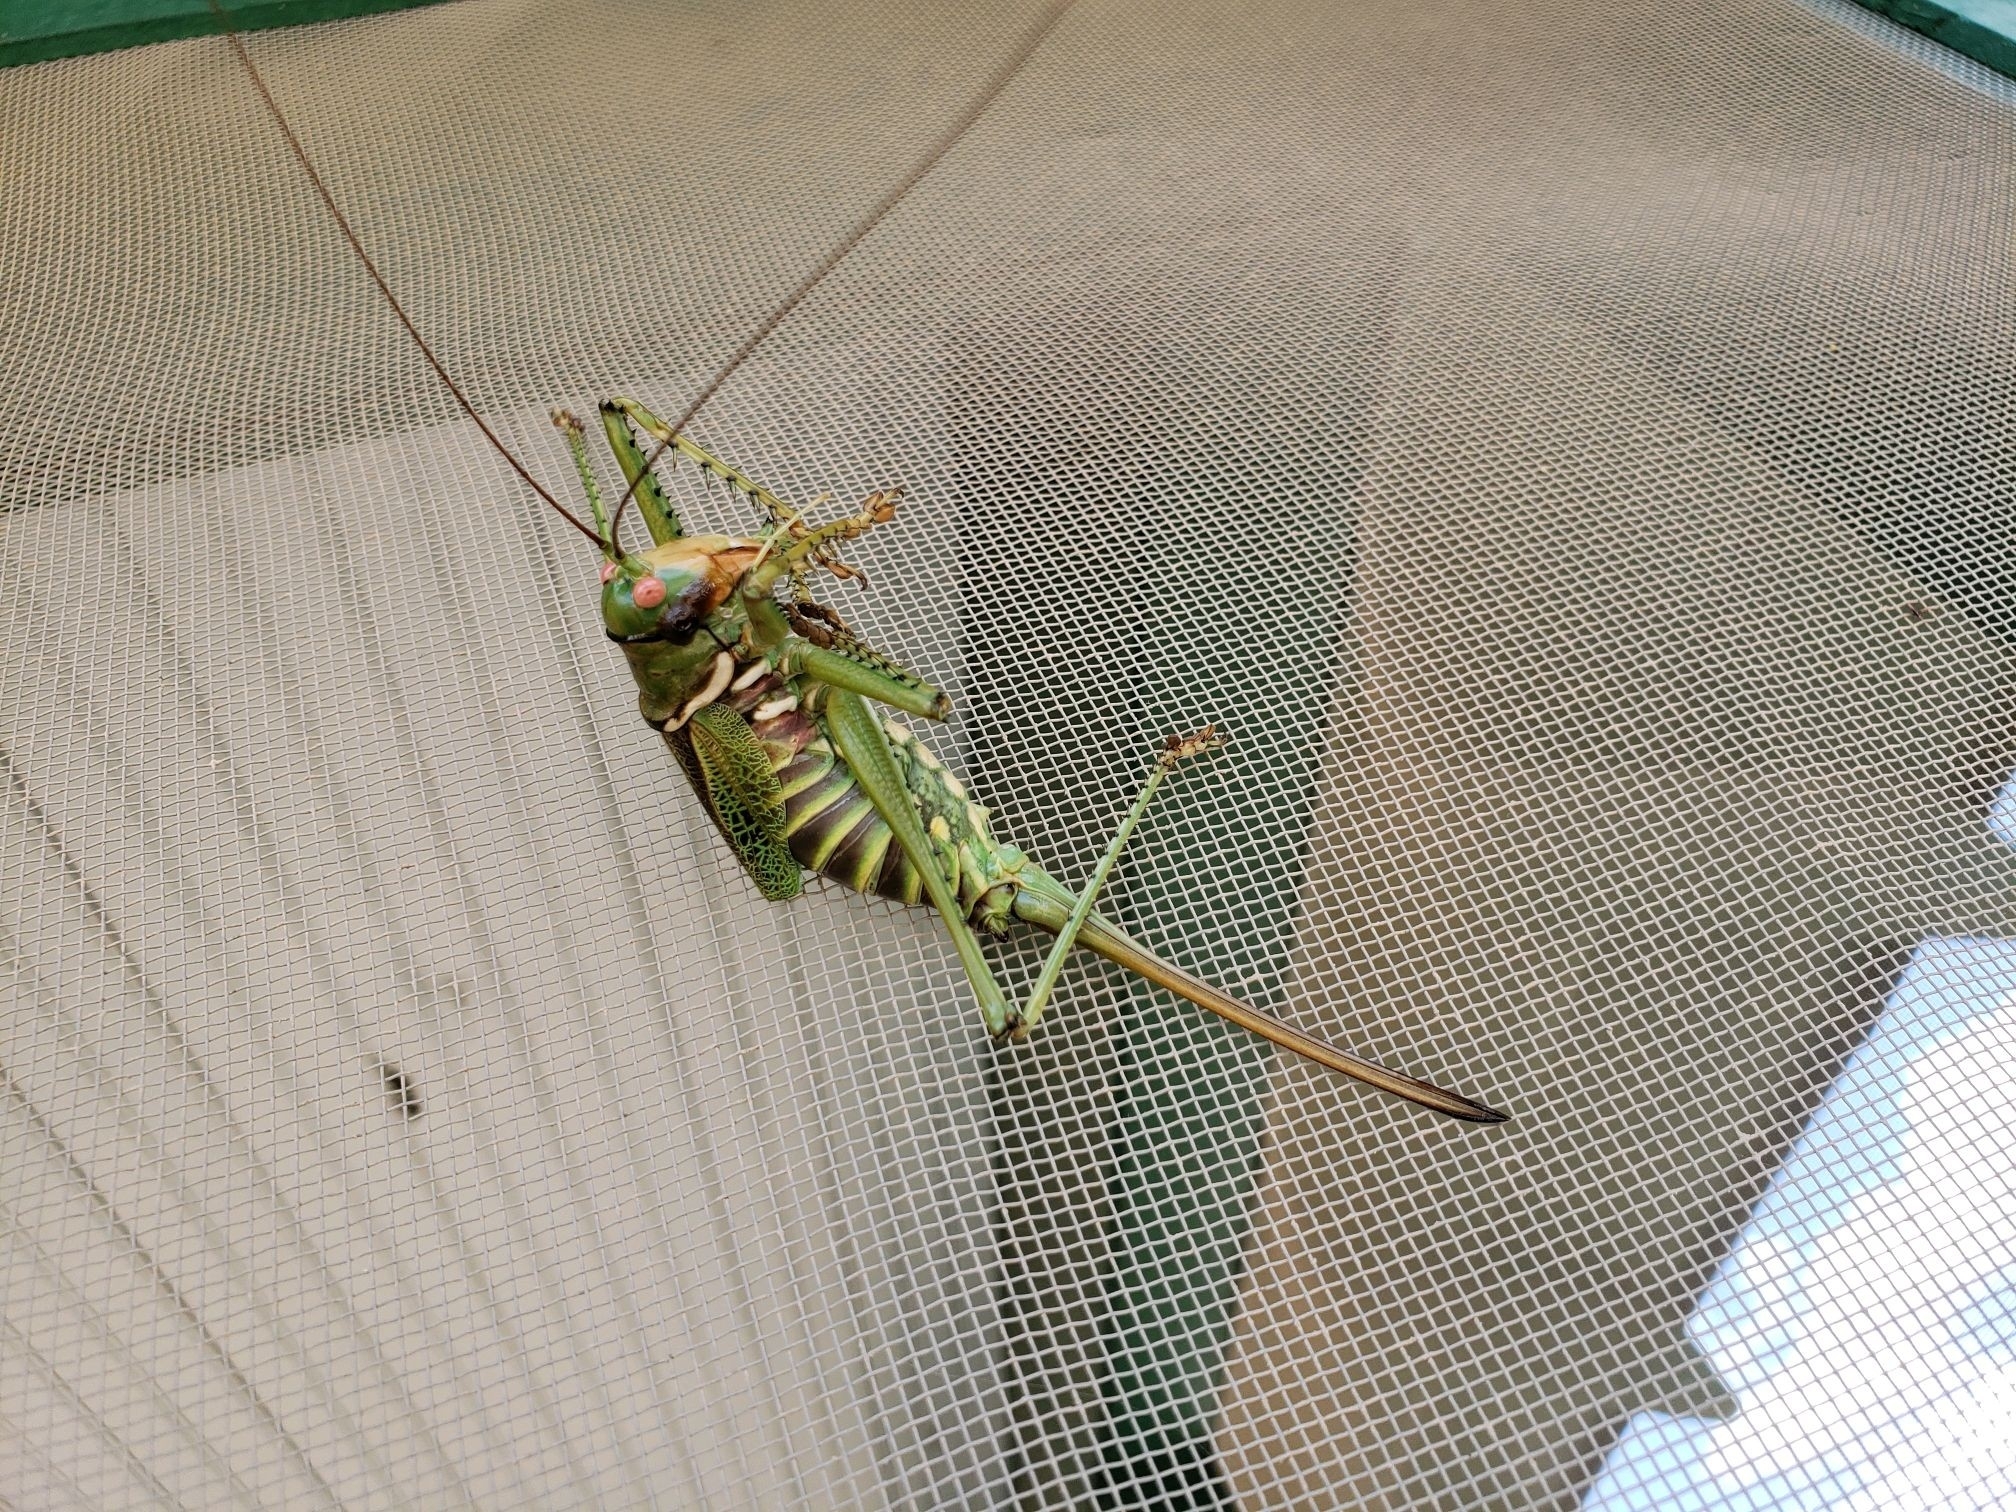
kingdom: Animalia
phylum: Arthropoda
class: Insecta
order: Orthoptera
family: Tettigoniidae
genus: Neobarrettia
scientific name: Neobarrettia spinosa
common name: Greater arid-land katydid
